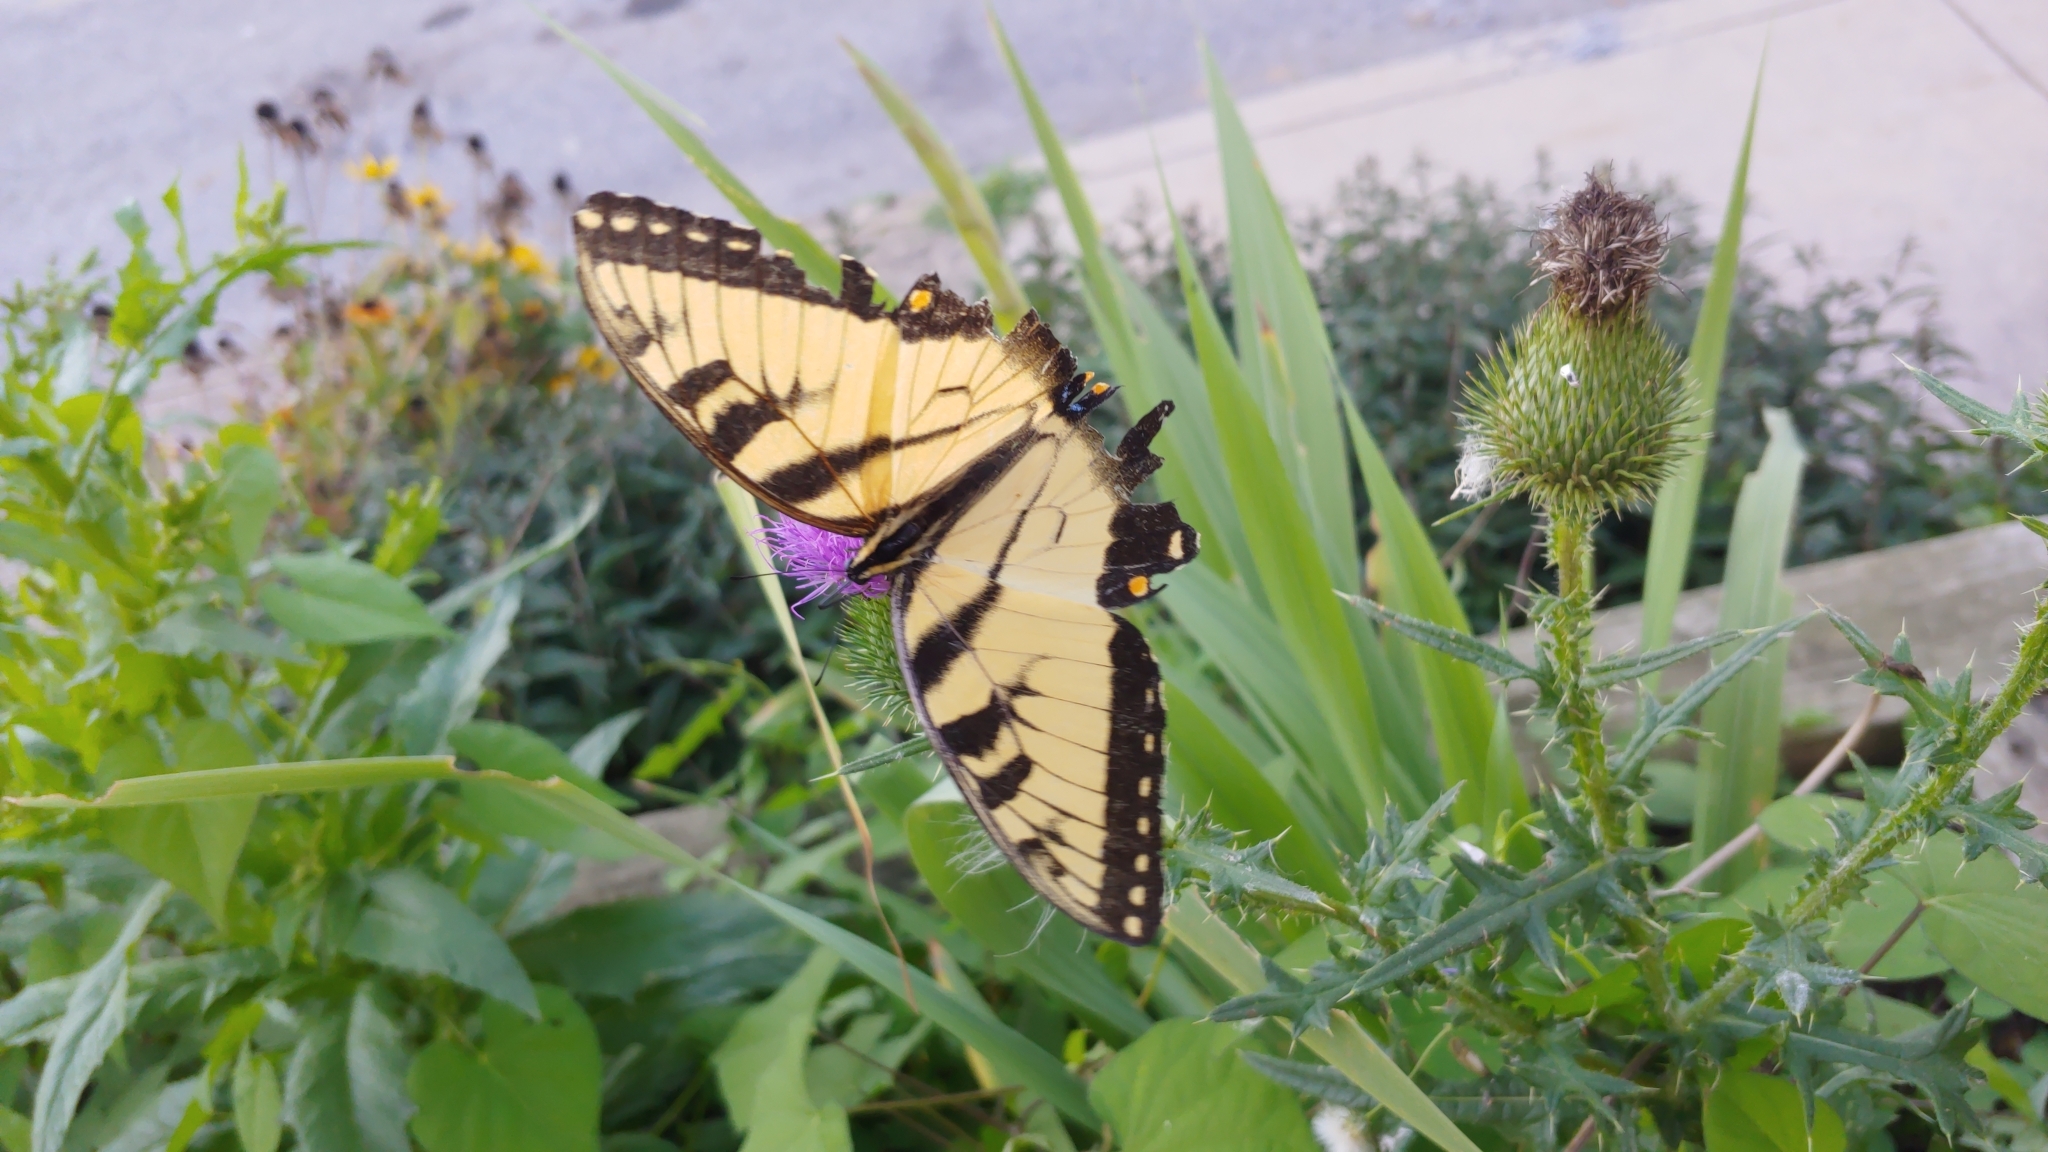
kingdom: Animalia
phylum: Arthropoda
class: Insecta
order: Lepidoptera
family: Papilionidae
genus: Papilio
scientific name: Papilio glaucus
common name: Tiger swallowtail
